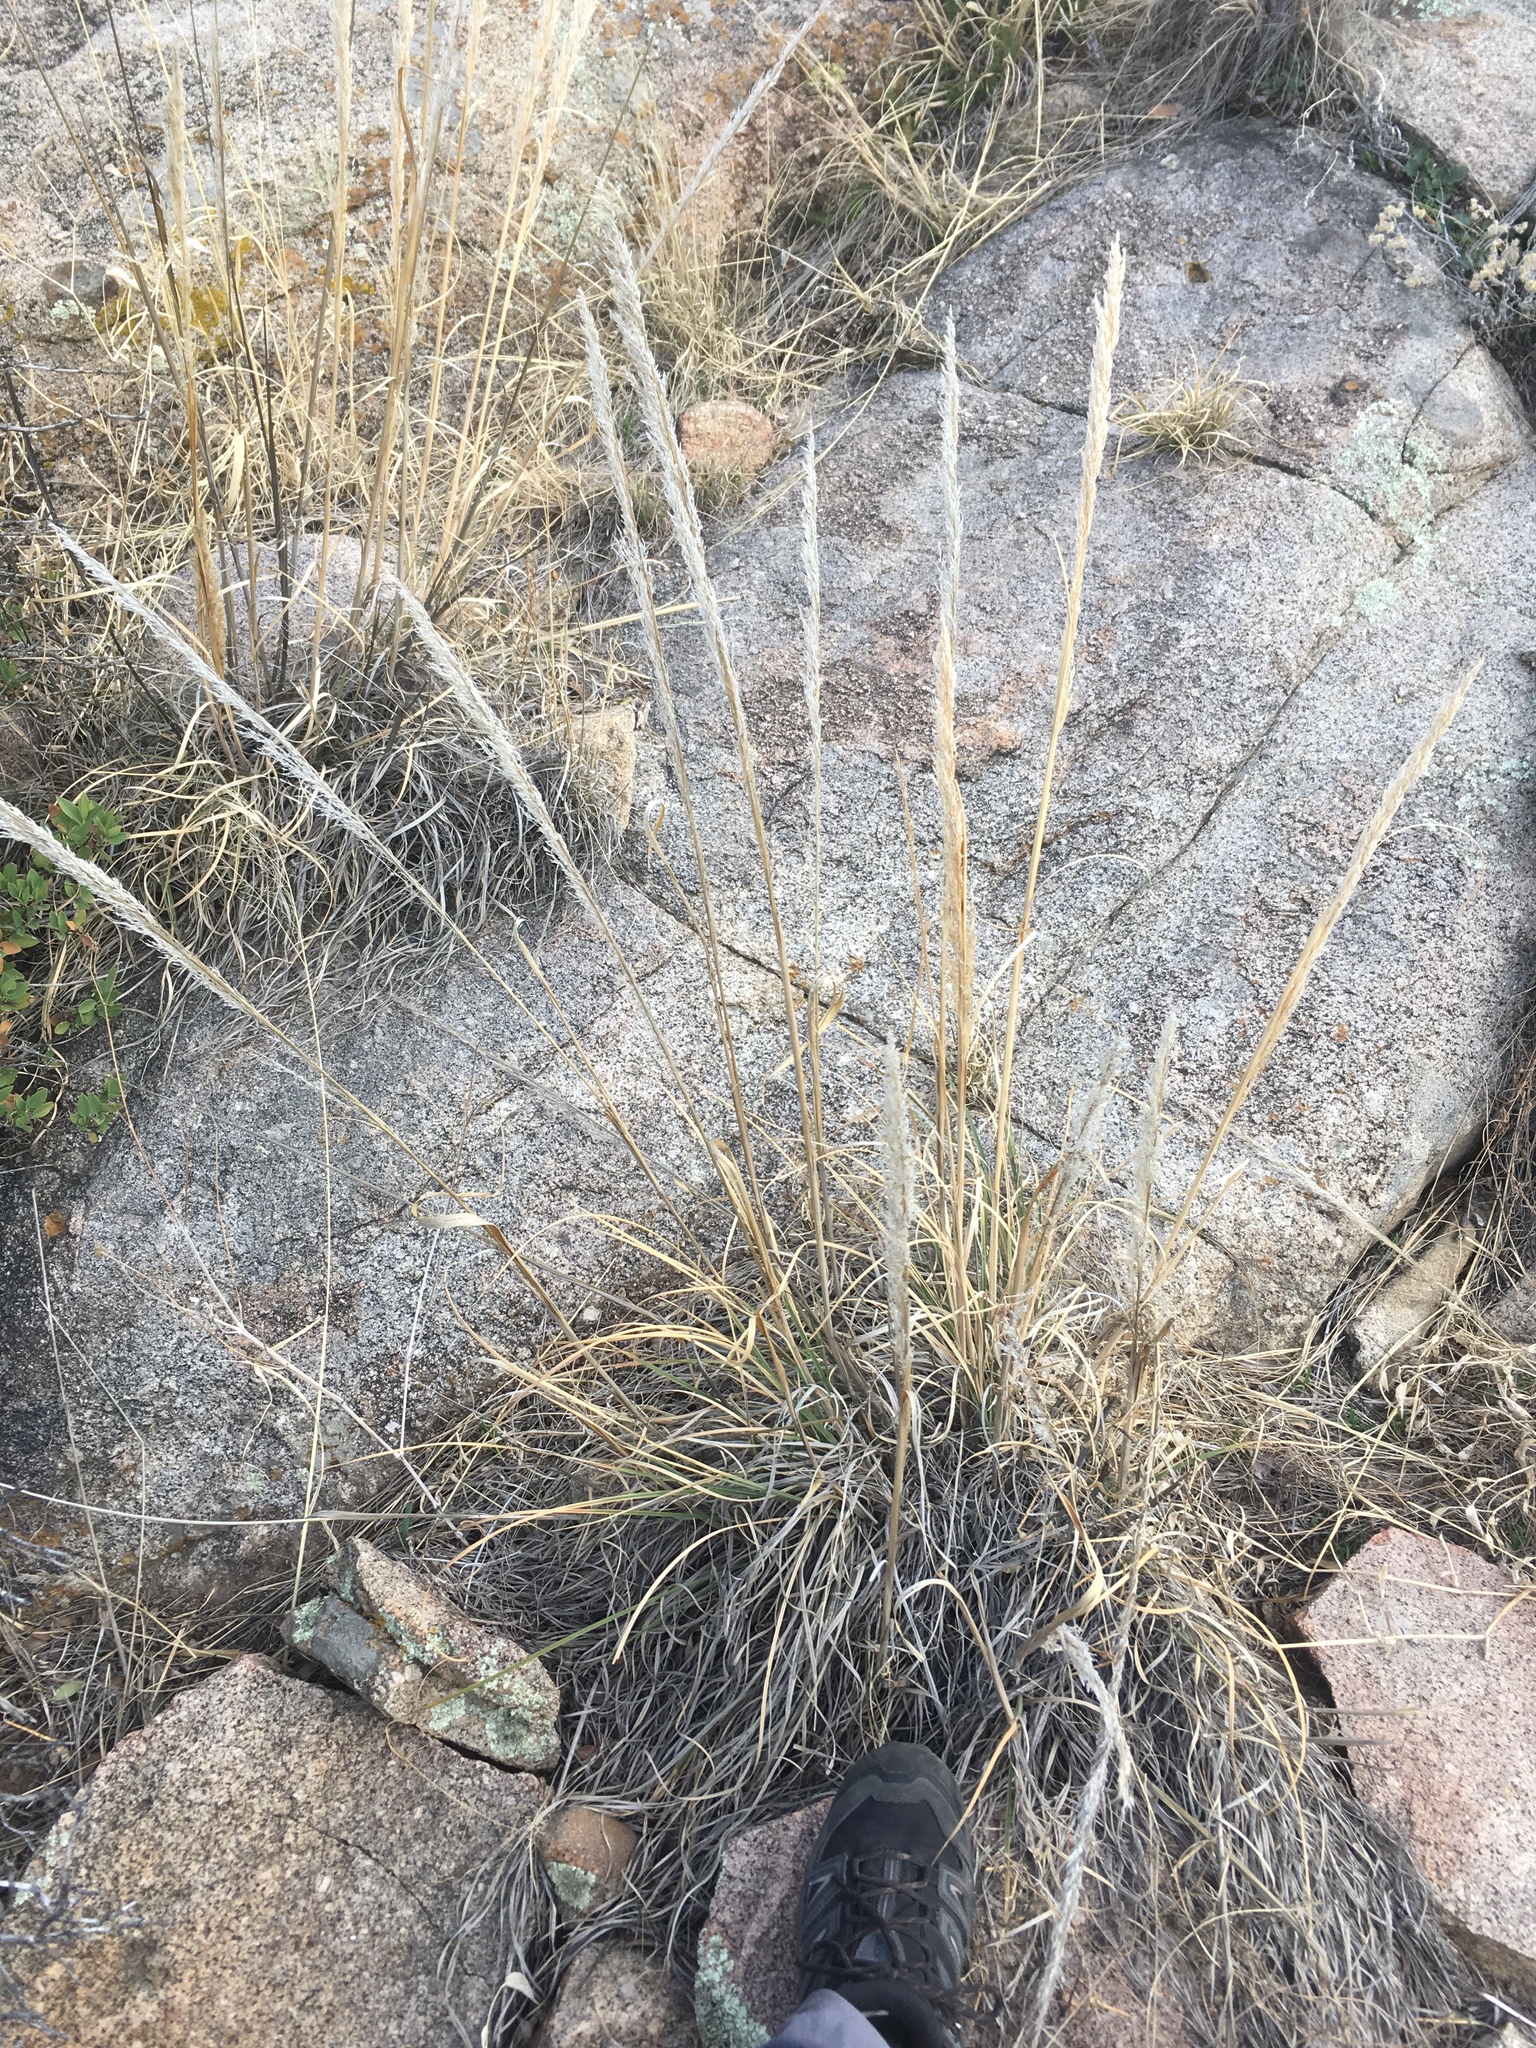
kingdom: Plantae
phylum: Tracheophyta
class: Liliopsida
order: Poales
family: Poaceae
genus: Muhlenbergia
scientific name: Muhlenbergia emersleyi
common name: Bull grass
